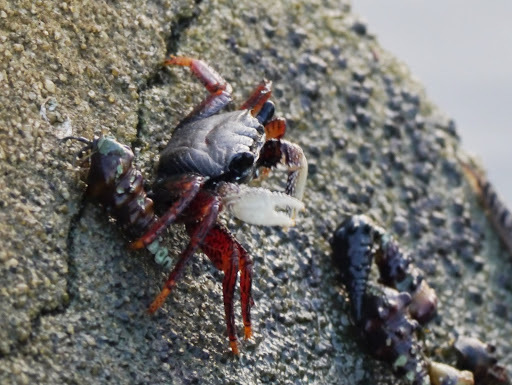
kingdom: Animalia
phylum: Arthropoda
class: Malacostraca
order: Decapoda
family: Grapsidae
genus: Goniopsis
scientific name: Goniopsis pelii
